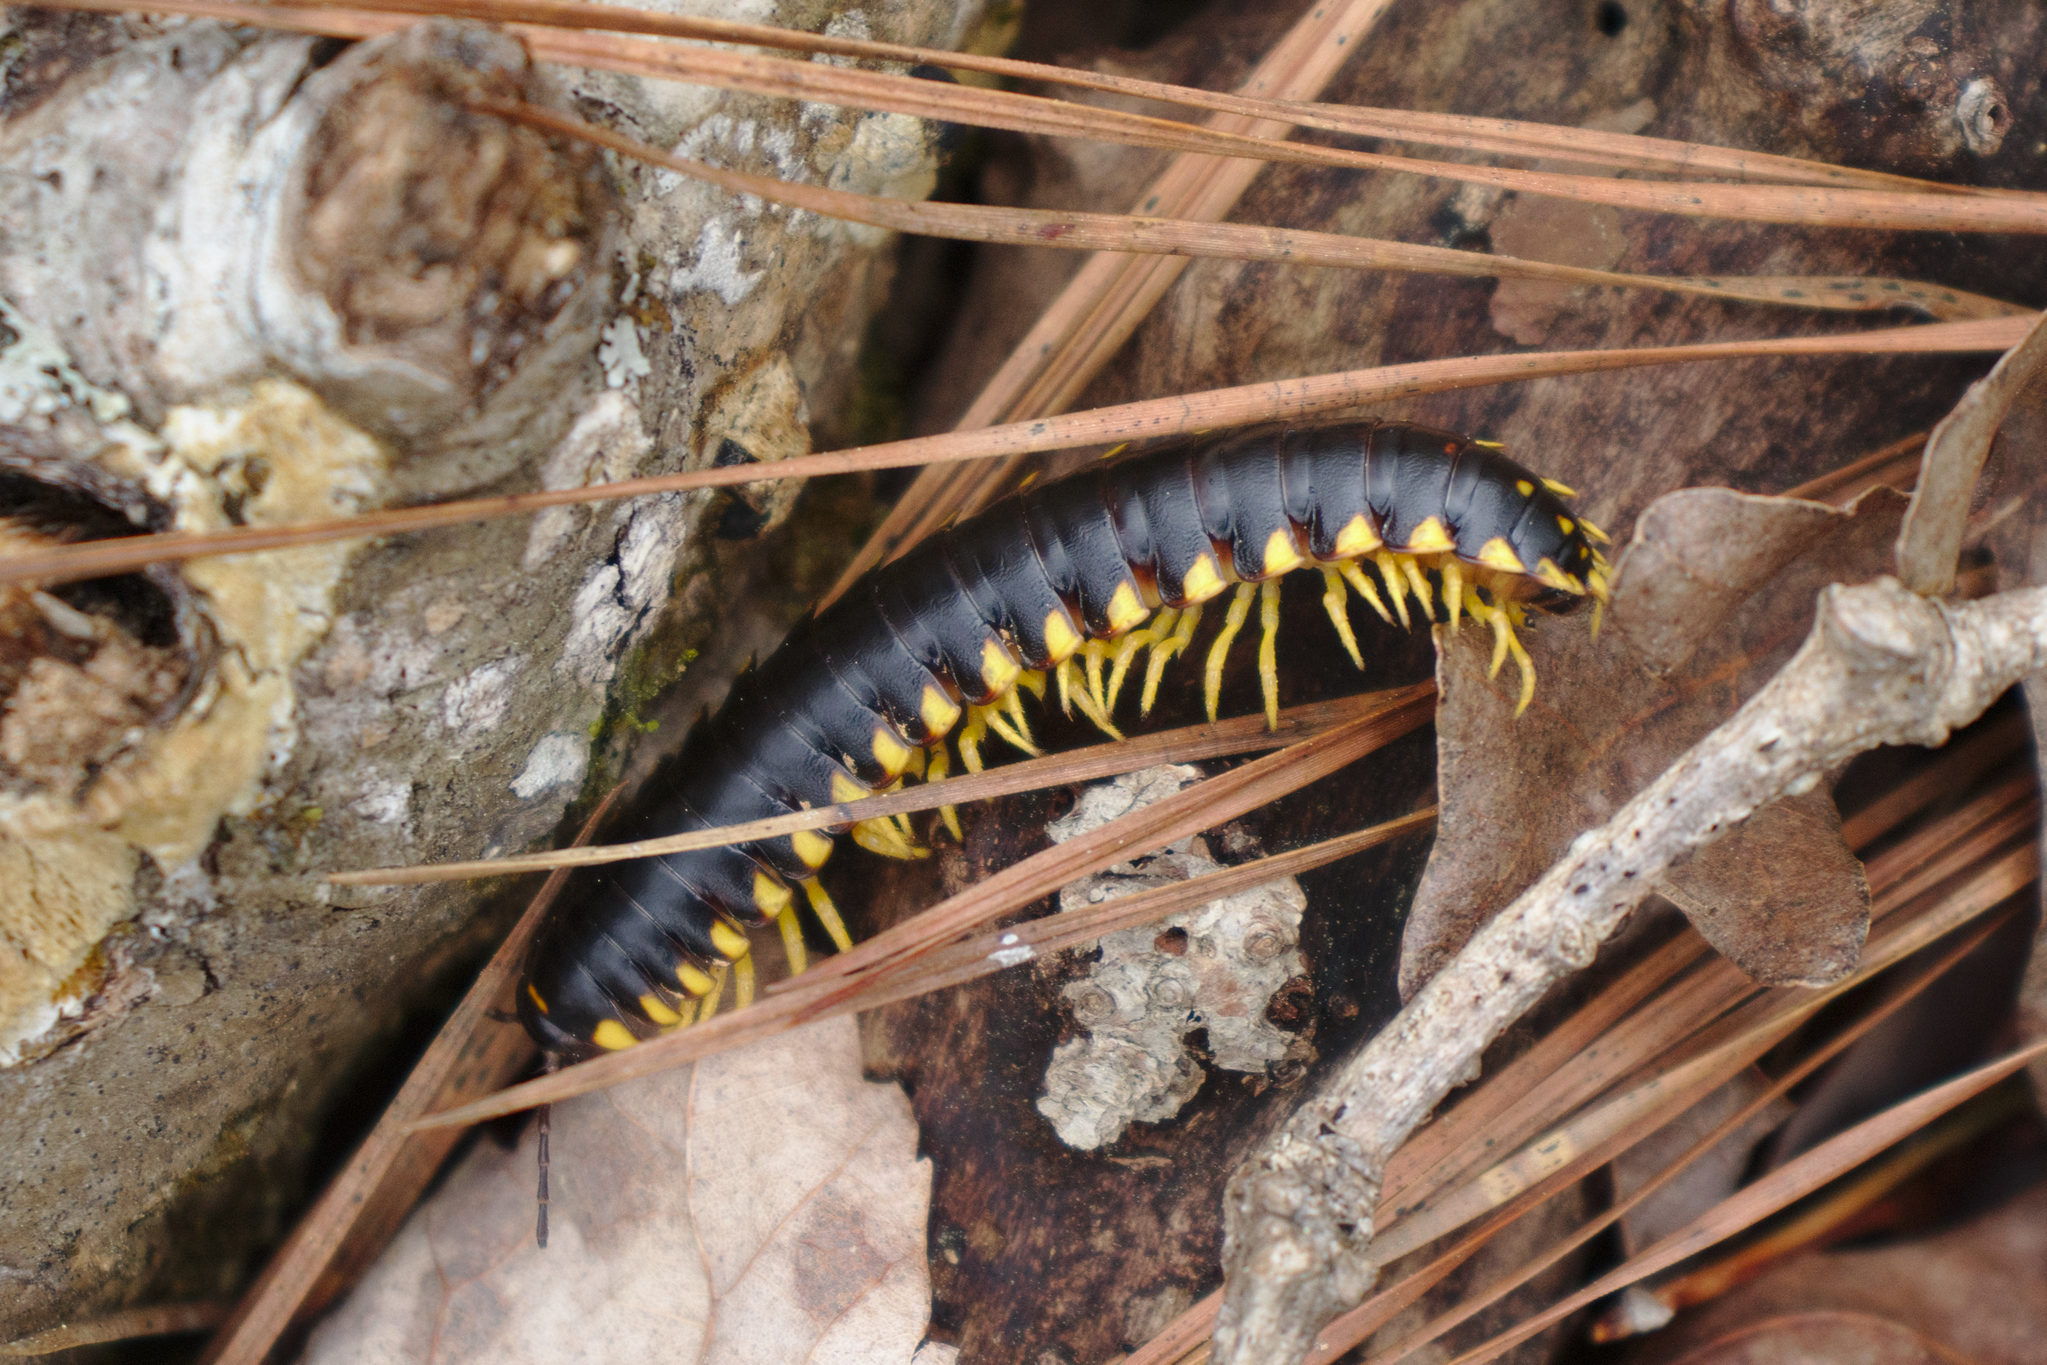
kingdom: Animalia
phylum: Arthropoda
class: Diplopoda
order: Polydesmida
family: Xystodesmidae
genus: Apheloria
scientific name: Apheloria tigana
